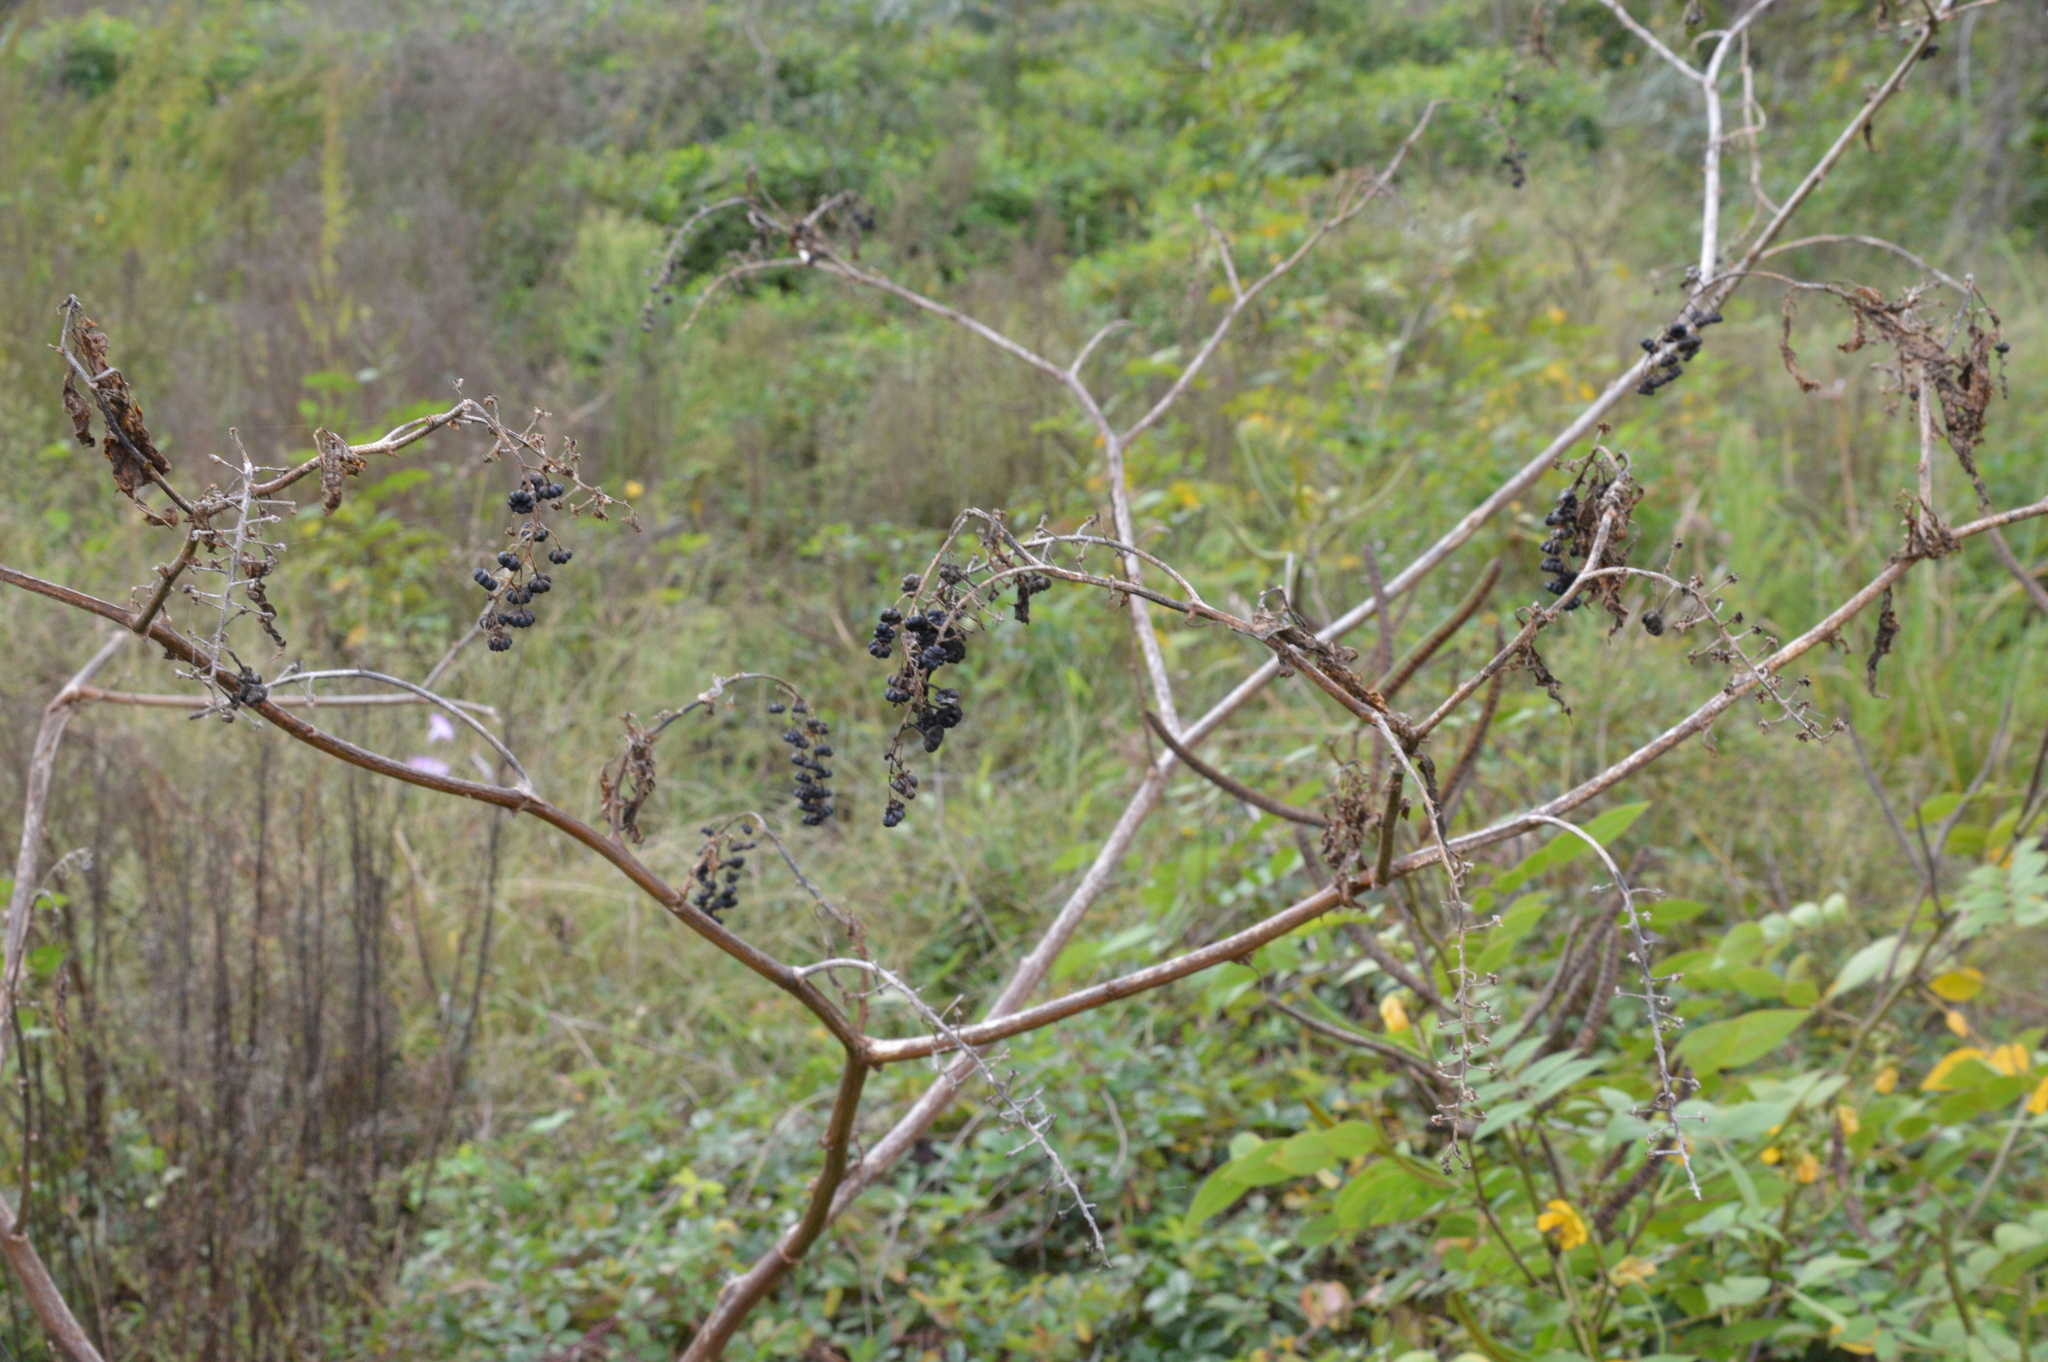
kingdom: Plantae
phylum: Tracheophyta
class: Magnoliopsida
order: Caryophyllales
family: Phytolaccaceae
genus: Phytolacca
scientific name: Phytolacca americana
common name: American pokeweed
